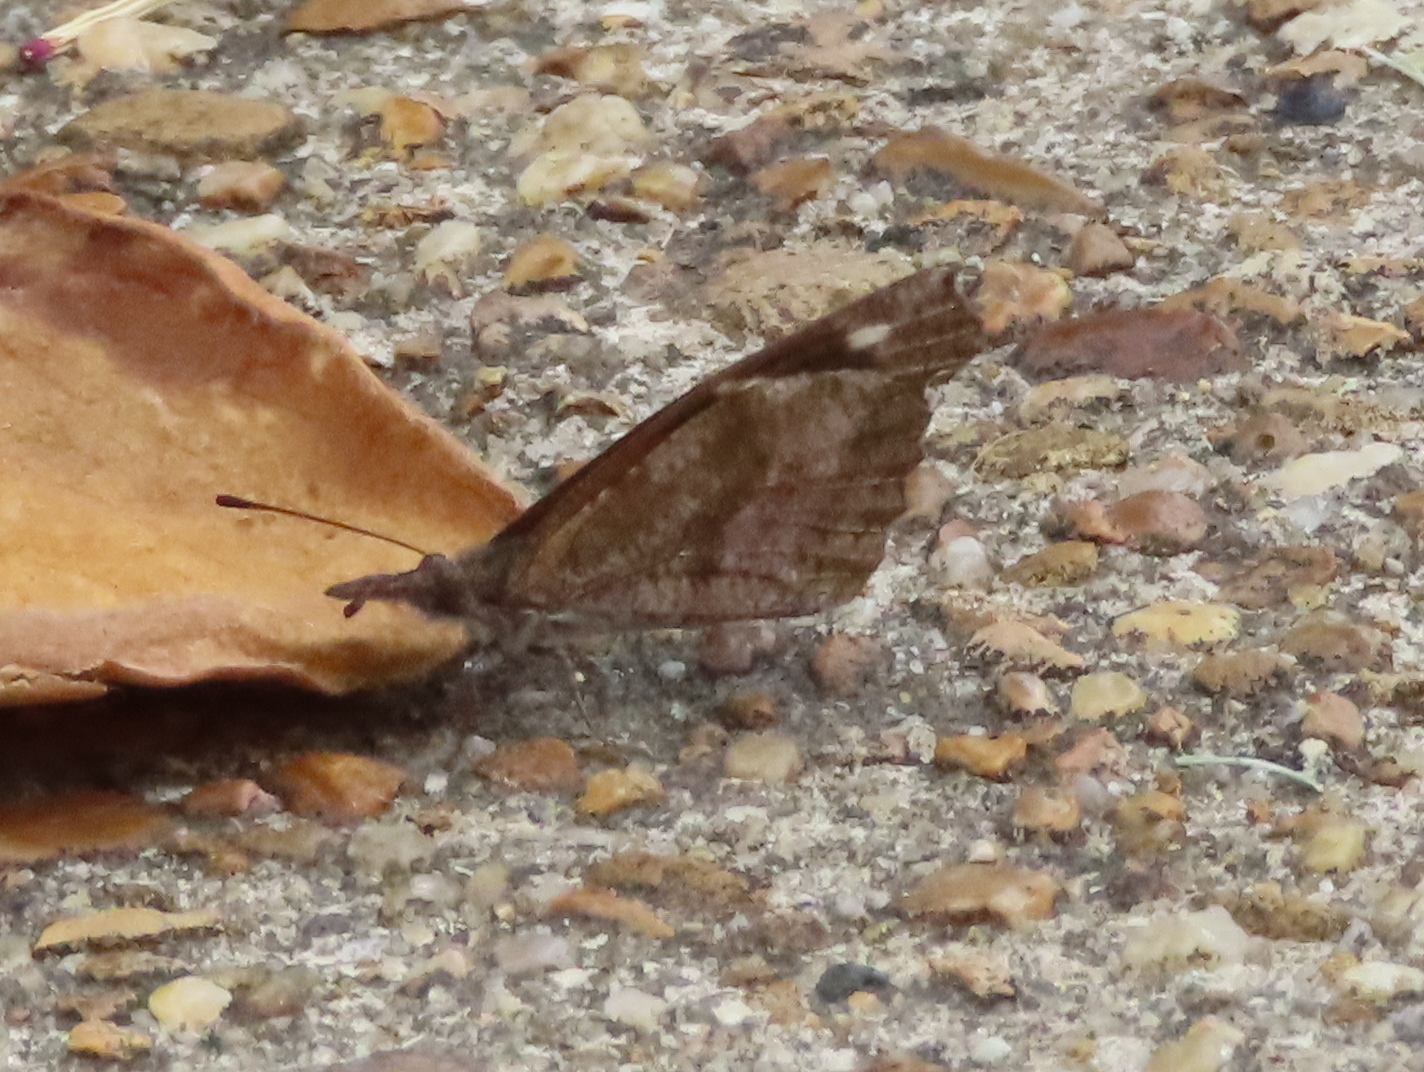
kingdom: Animalia
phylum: Arthropoda
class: Insecta
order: Lepidoptera
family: Nymphalidae
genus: Libytheana
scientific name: Libytheana carinenta
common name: American snout
